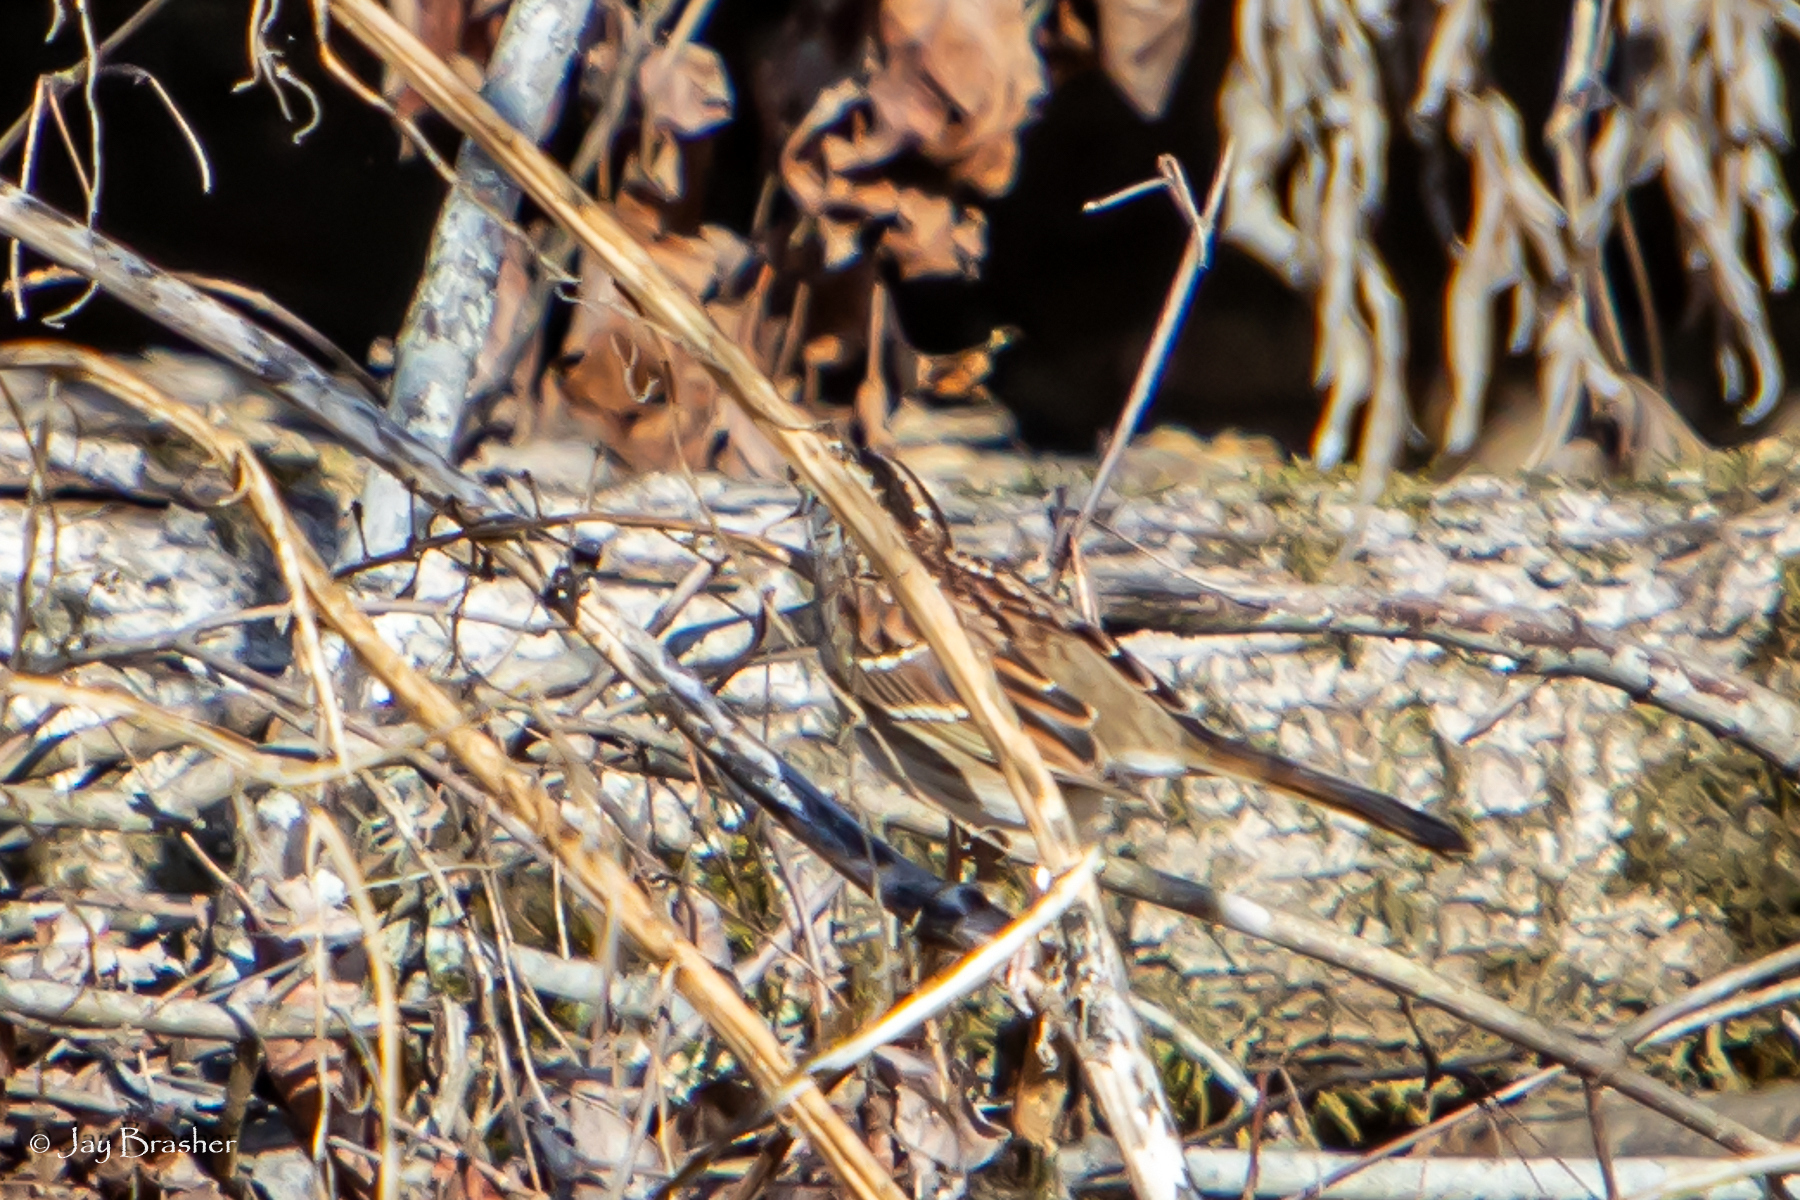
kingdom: Animalia
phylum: Chordata
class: Aves
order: Passeriformes
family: Passerellidae
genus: Zonotrichia
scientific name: Zonotrichia albicollis
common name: White-throated sparrow
